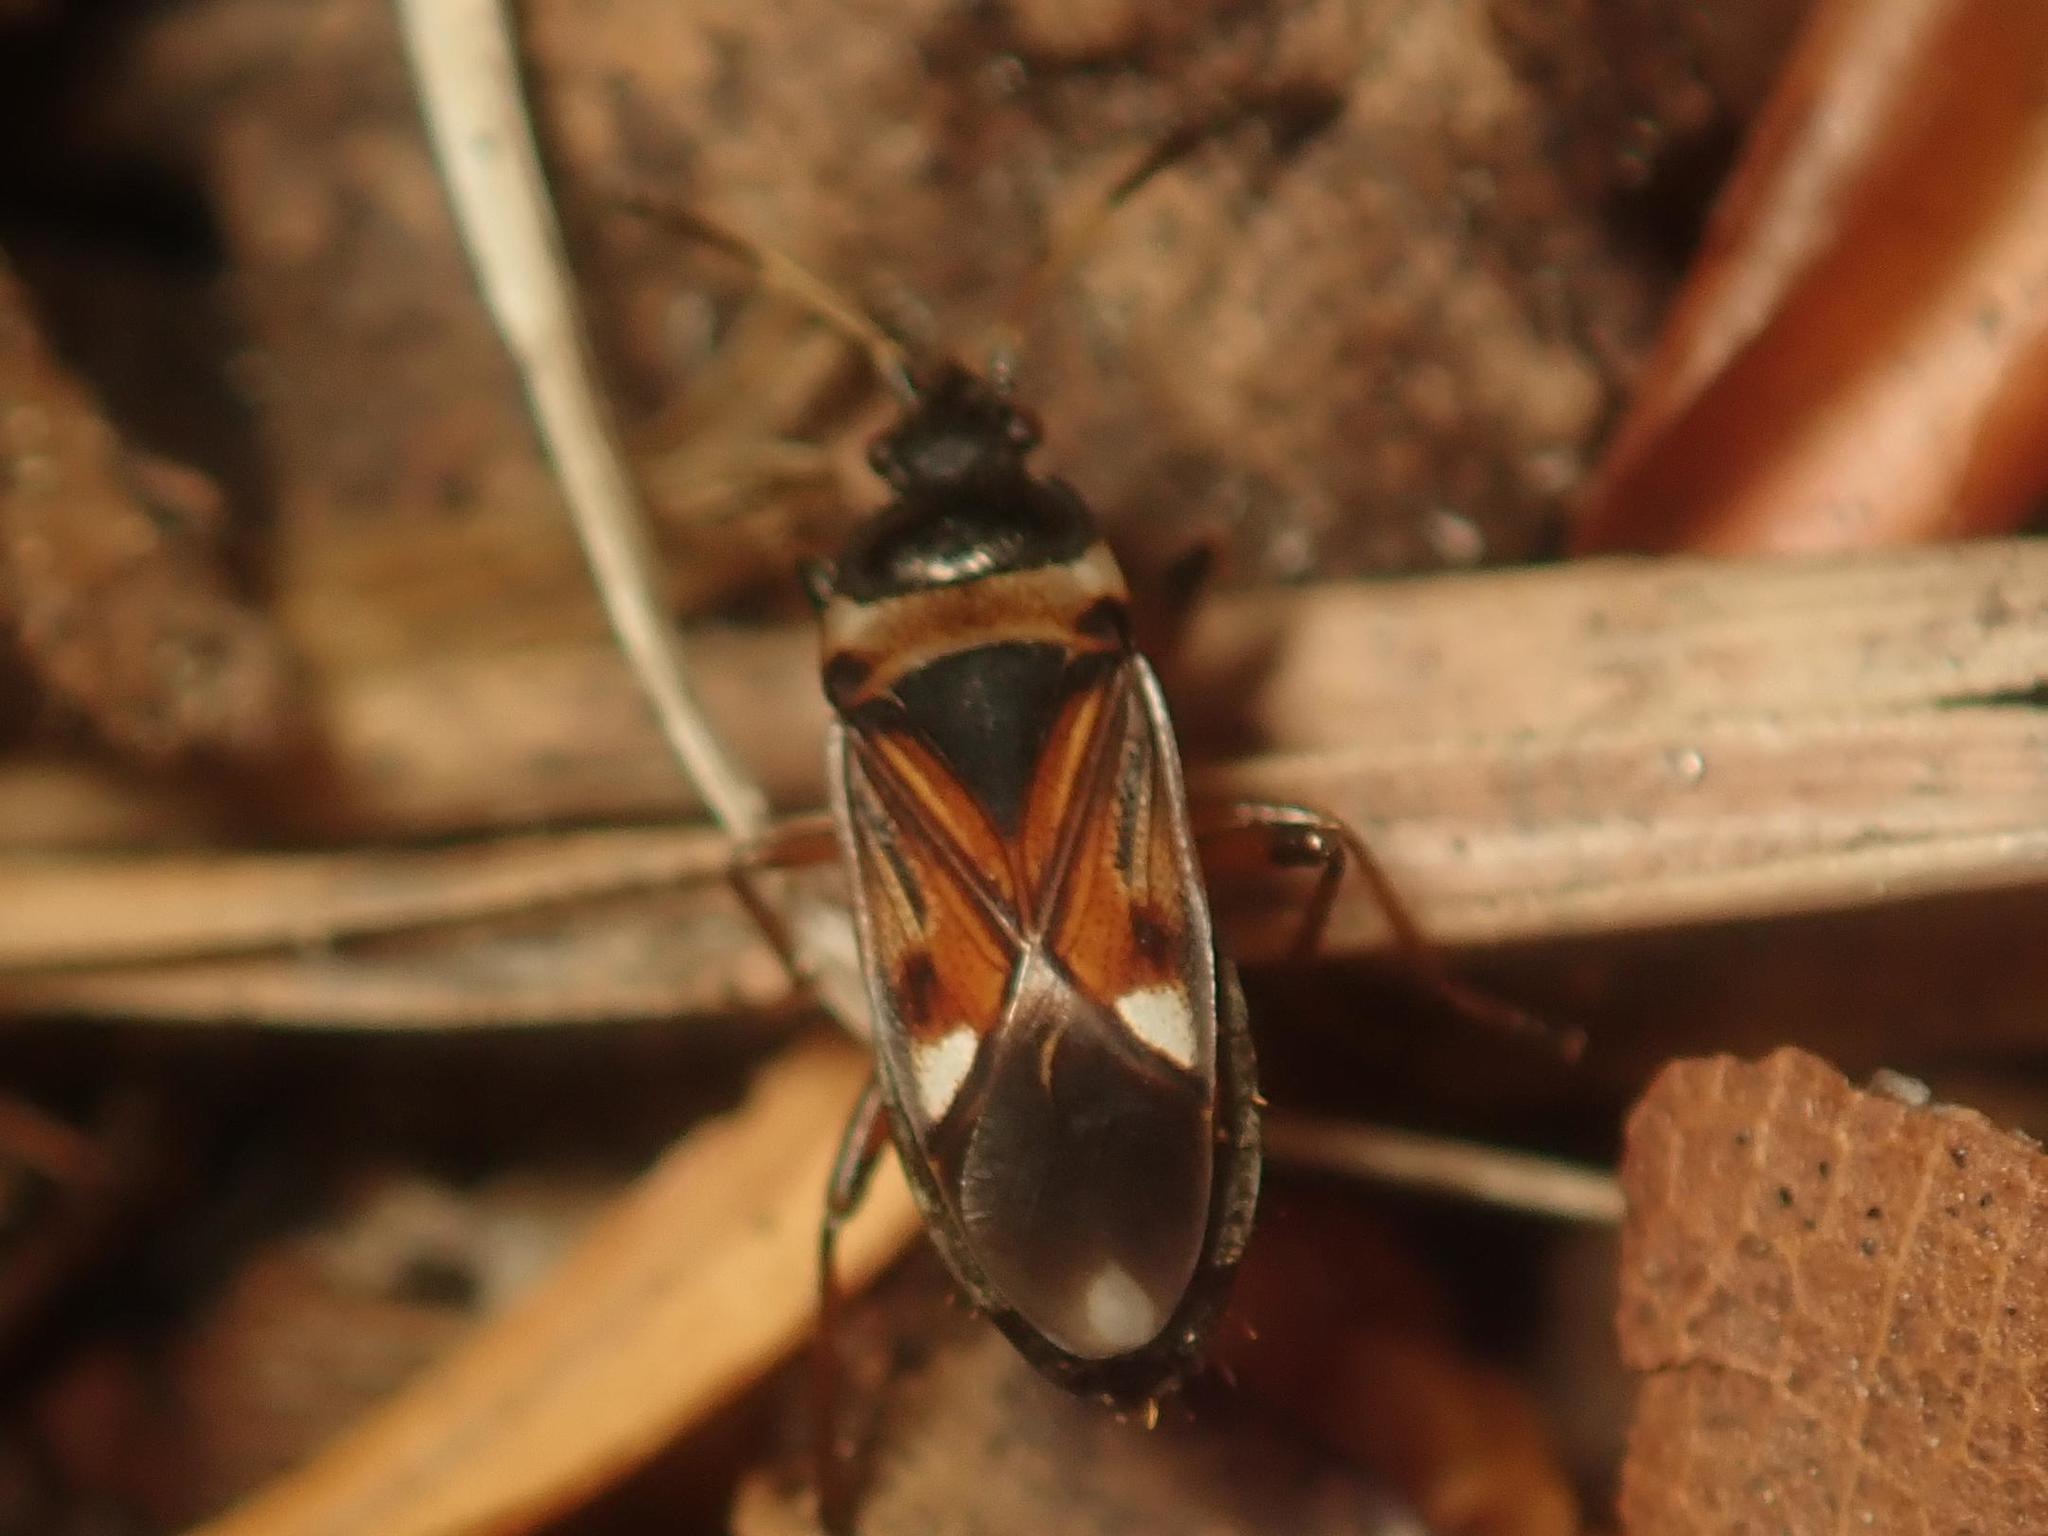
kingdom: Animalia
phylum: Arthropoda
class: Insecta
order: Hemiptera
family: Rhyparochromidae
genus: Raglius
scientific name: Raglius alboacuminatus
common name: Dirt-colored seed bug
